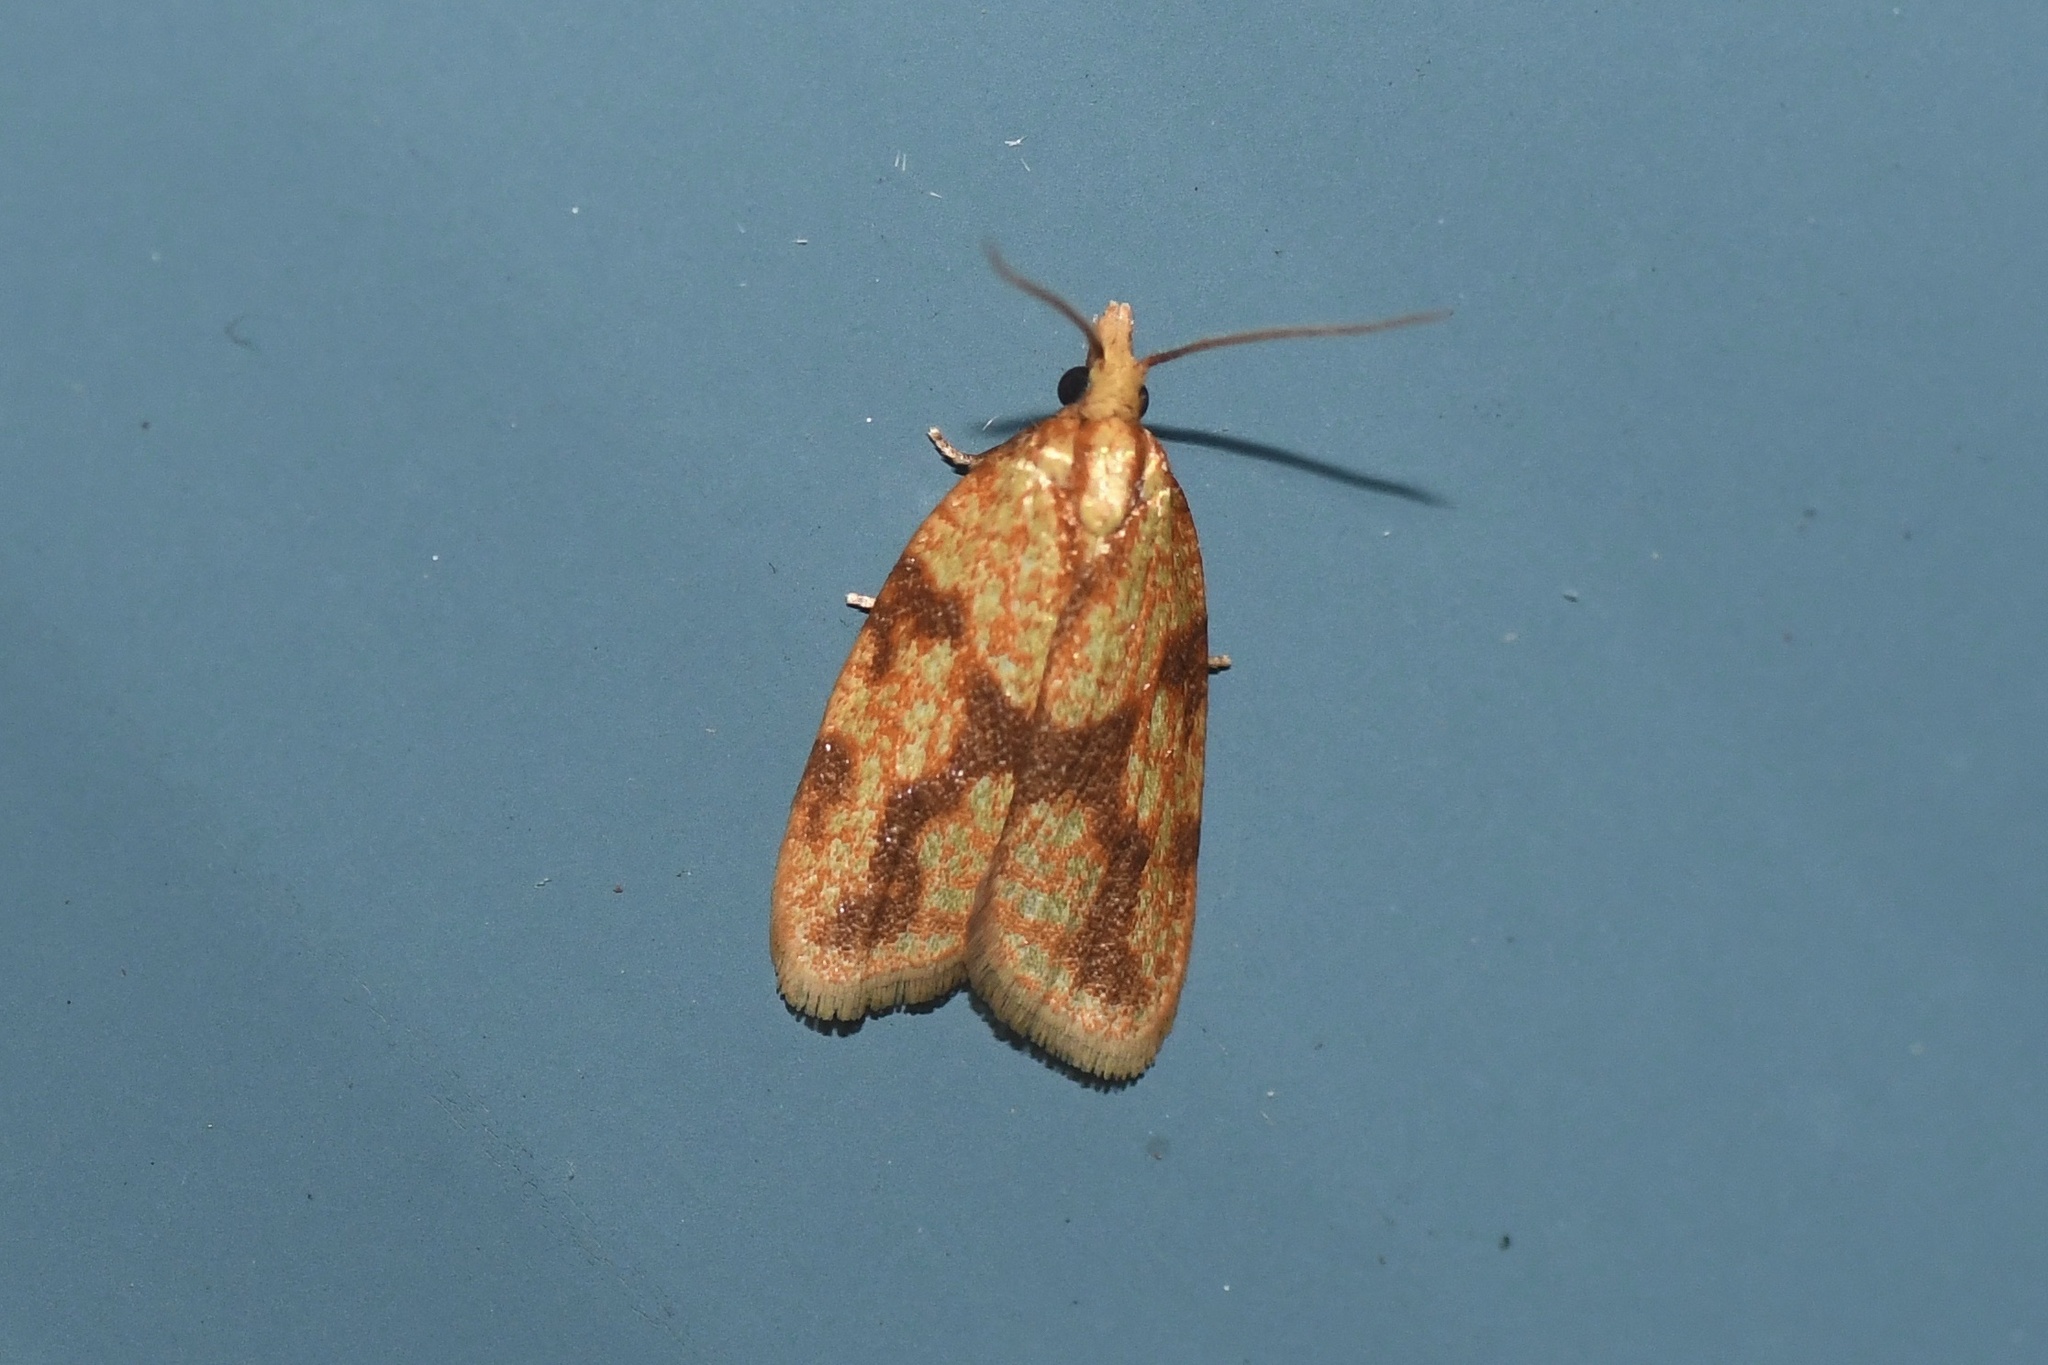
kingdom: Animalia
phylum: Arthropoda
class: Insecta
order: Lepidoptera
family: Tortricidae
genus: Sparganothis
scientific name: Sparganothis sulfureana
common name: Sparganothis fruitworm moth
